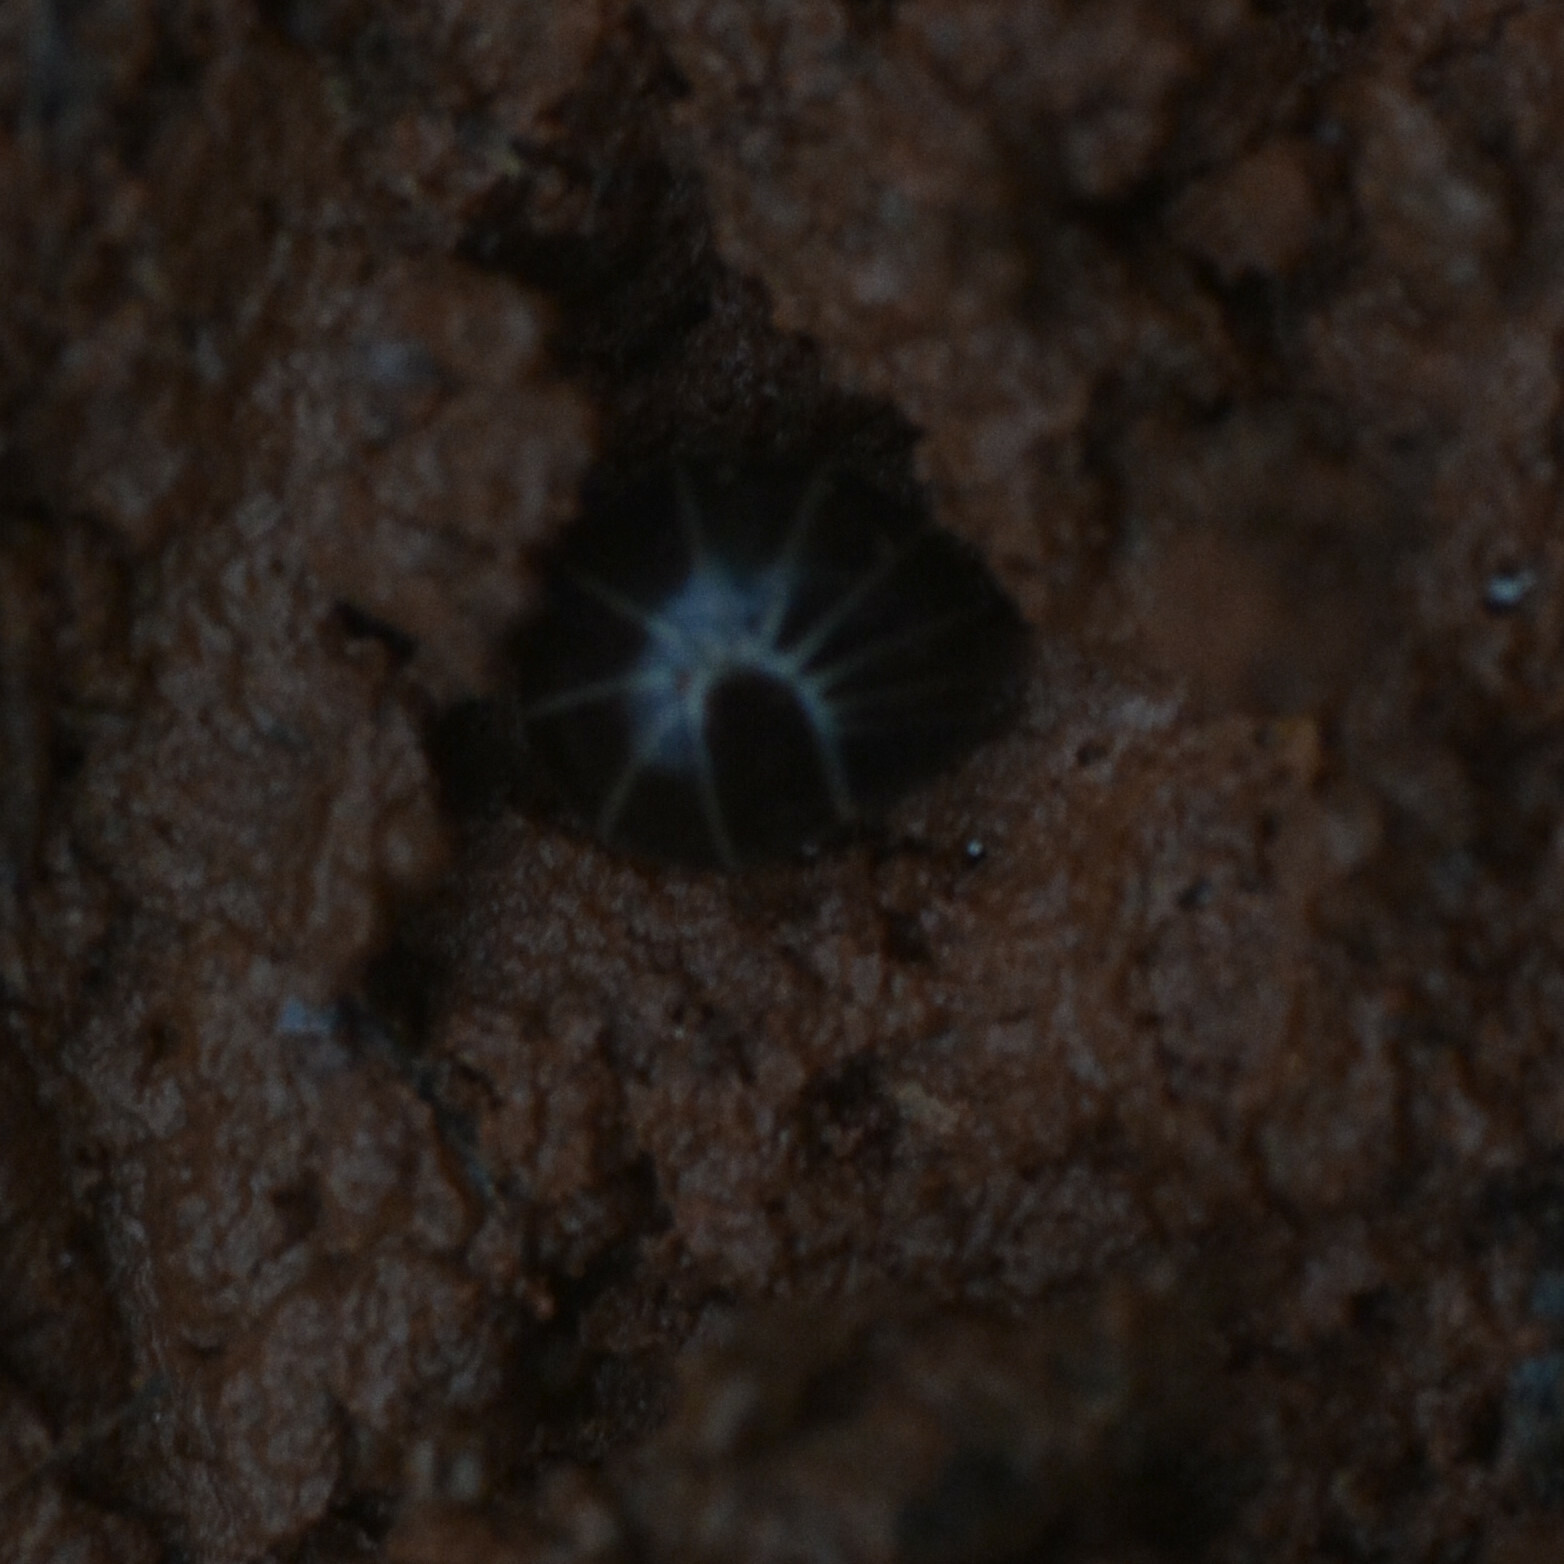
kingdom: Animalia
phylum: Arthropoda
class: Diplopoda
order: Glomerida
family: Glomeridae
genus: Glomeris
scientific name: Glomeris marginata
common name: Bordered pill millipede
